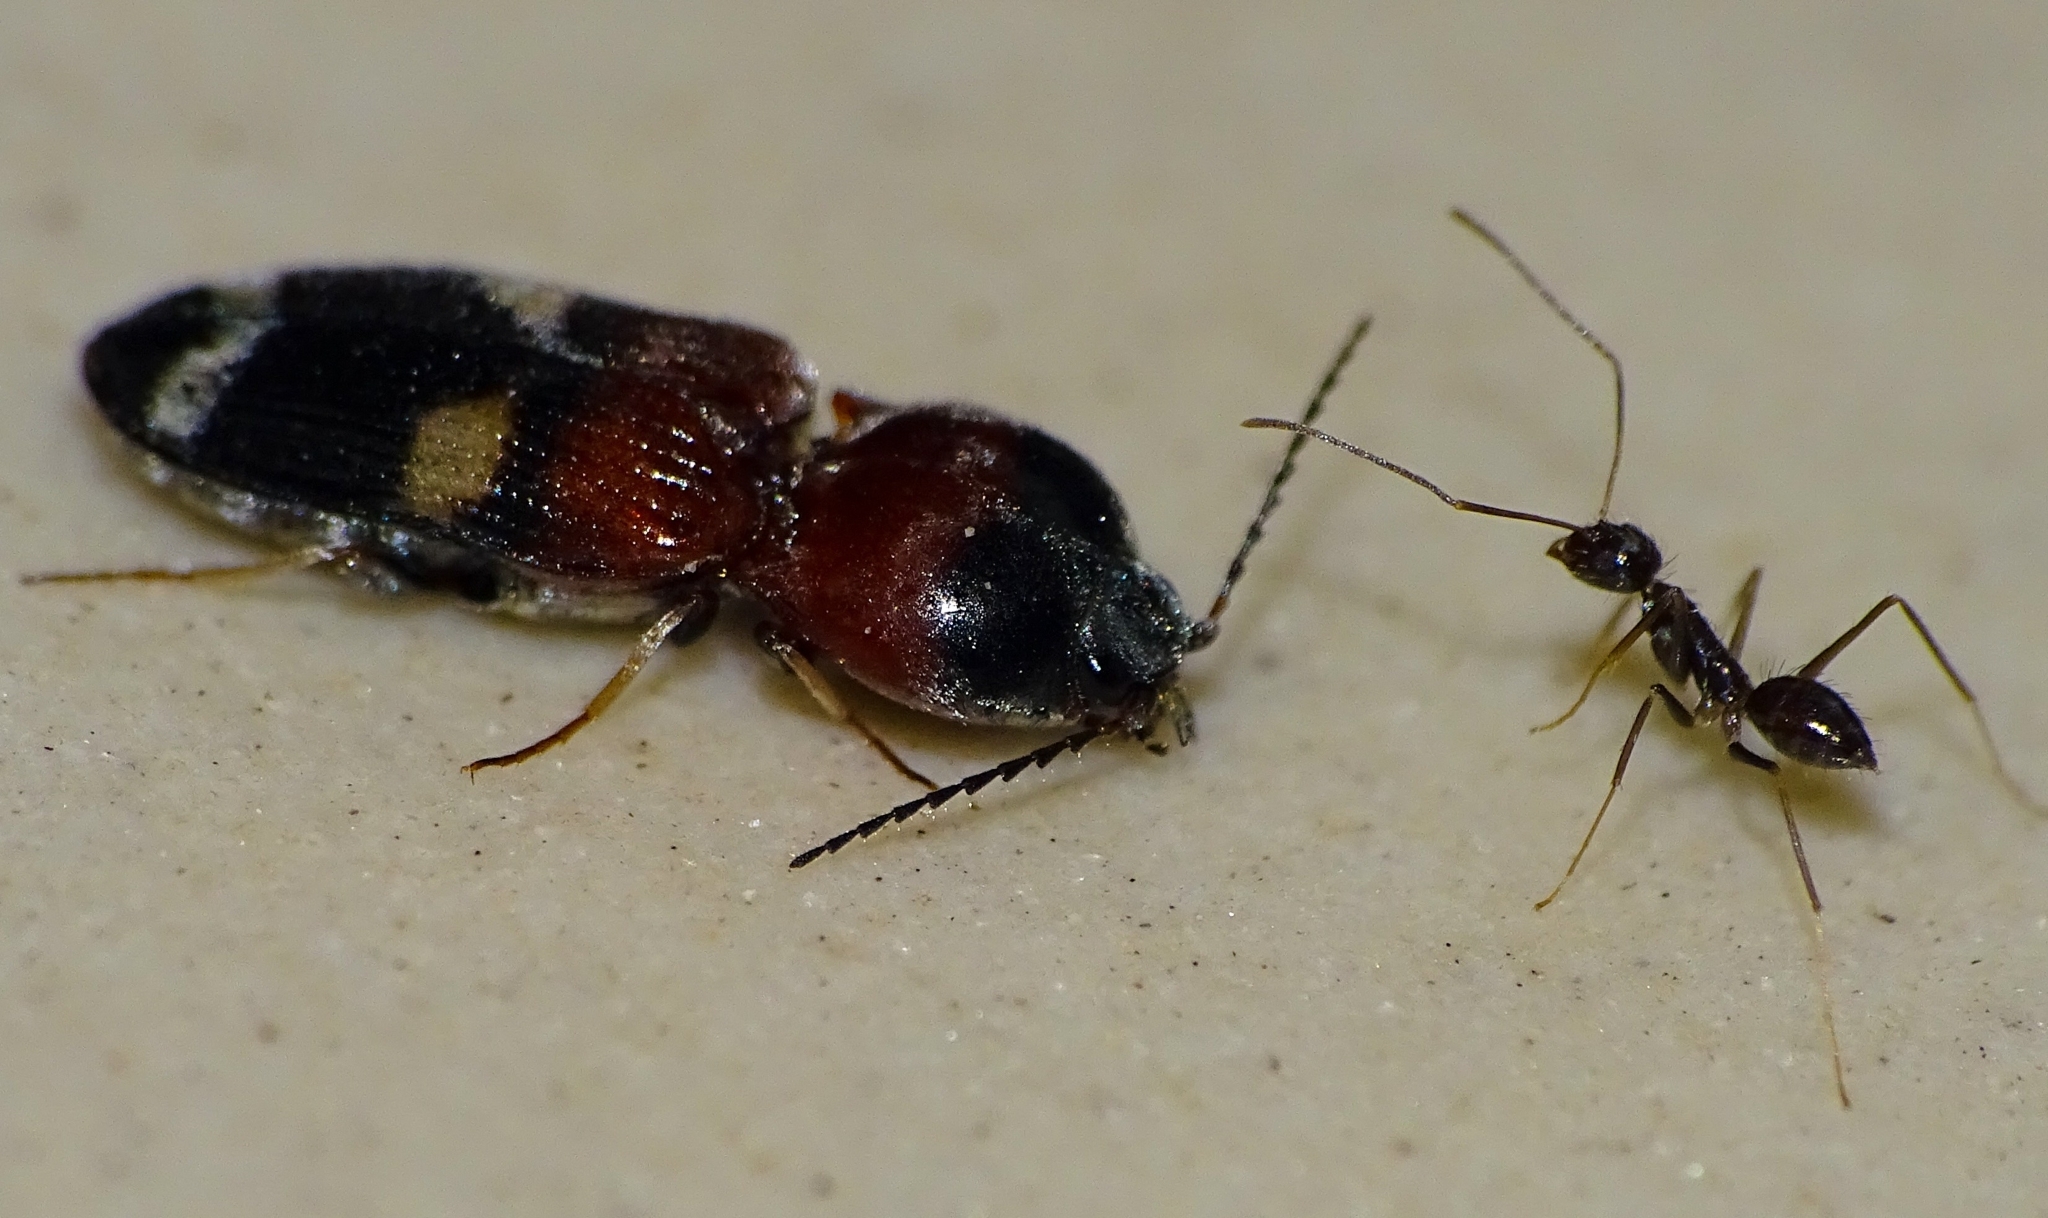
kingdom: Animalia
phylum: Arthropoda
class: Insecta
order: Hymenoptera
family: Formicidae
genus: Paratrechina
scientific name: Paratrechina longicornis
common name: Longhorned crazy ant
